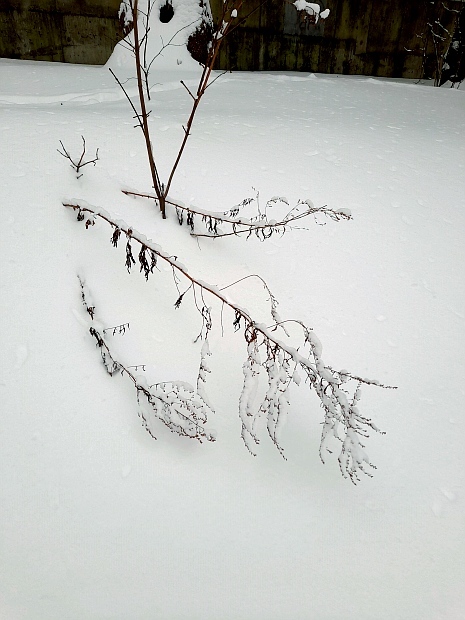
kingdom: Plantae
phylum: Tracheophyta
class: Magnoliopsida
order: Asterales
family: Asteraceae
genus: Artemisia
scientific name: Artemisia vulgaris
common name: Mugwort
